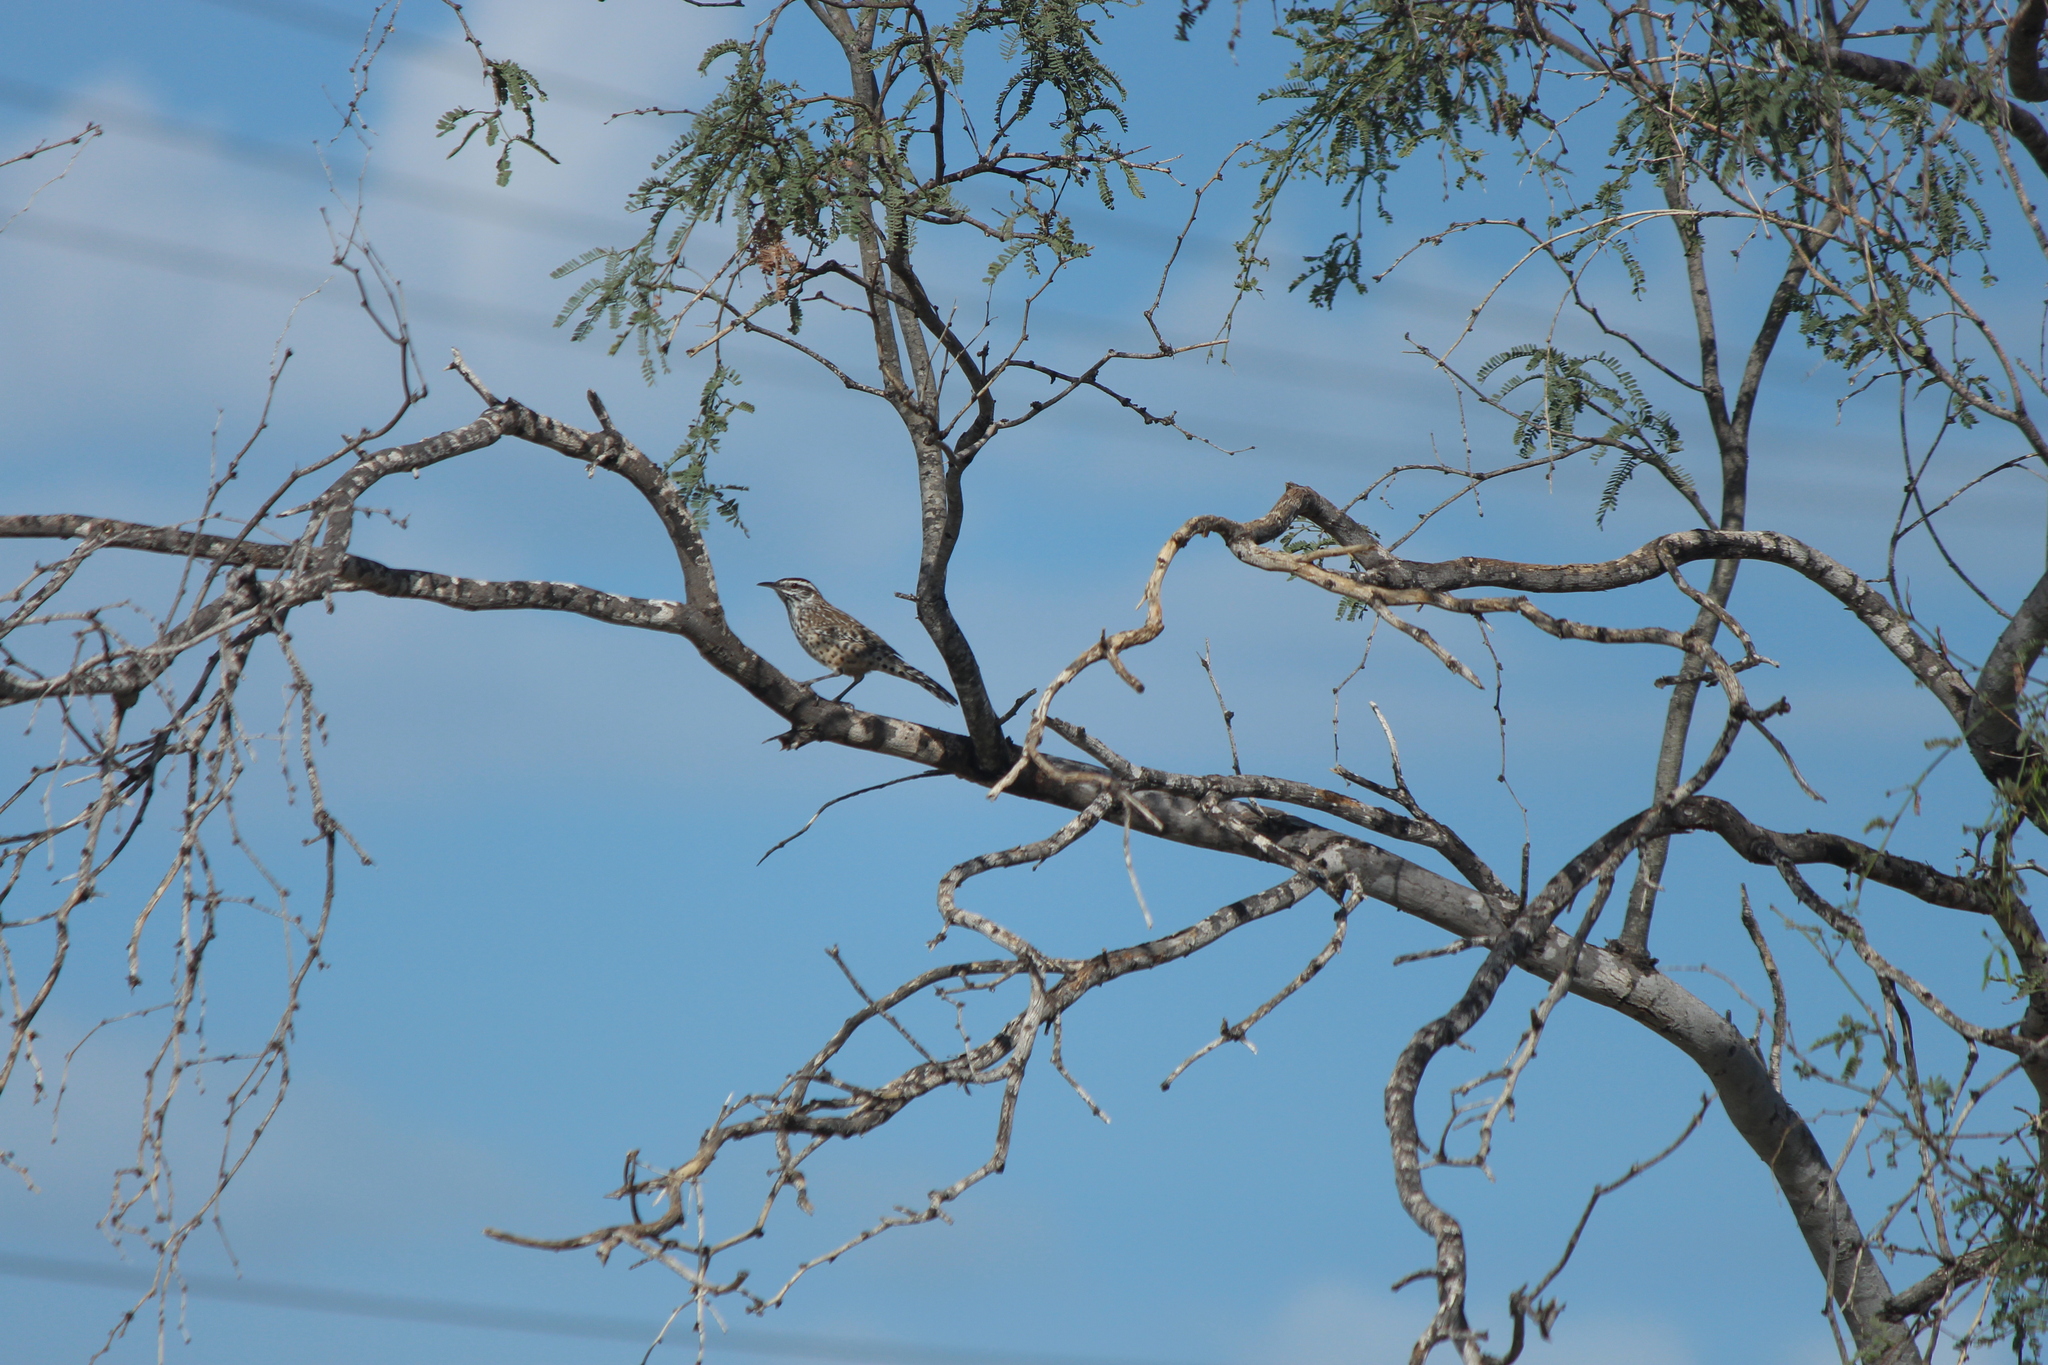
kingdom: Animalia
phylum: Chordata
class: Aves
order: Passeriformes
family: Troglodytidae
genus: Campylorhynchus
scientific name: Campylorhynchus brunneicapillus
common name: Cactus wren
